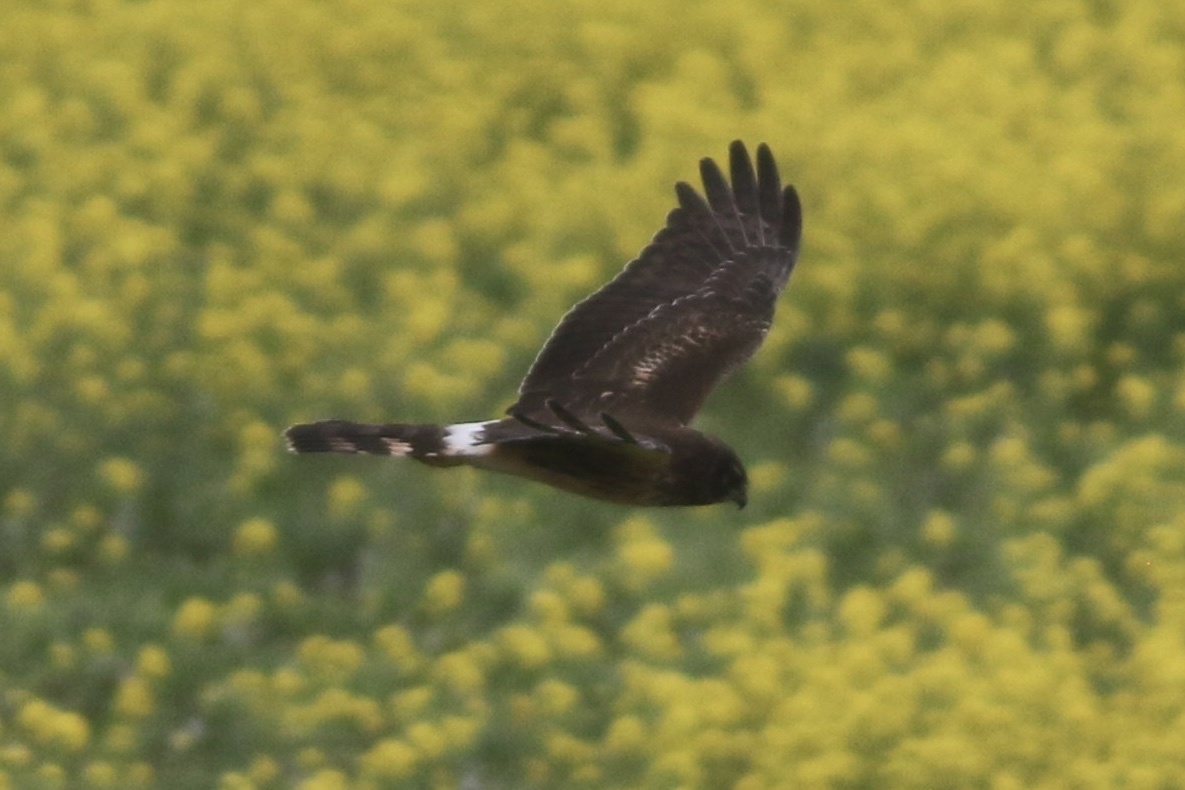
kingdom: Animalia
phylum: Chordata
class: Aves
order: Accipitriformes
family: Accipitridae
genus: Circus
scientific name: Circus cyaneus
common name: Hen harrier
